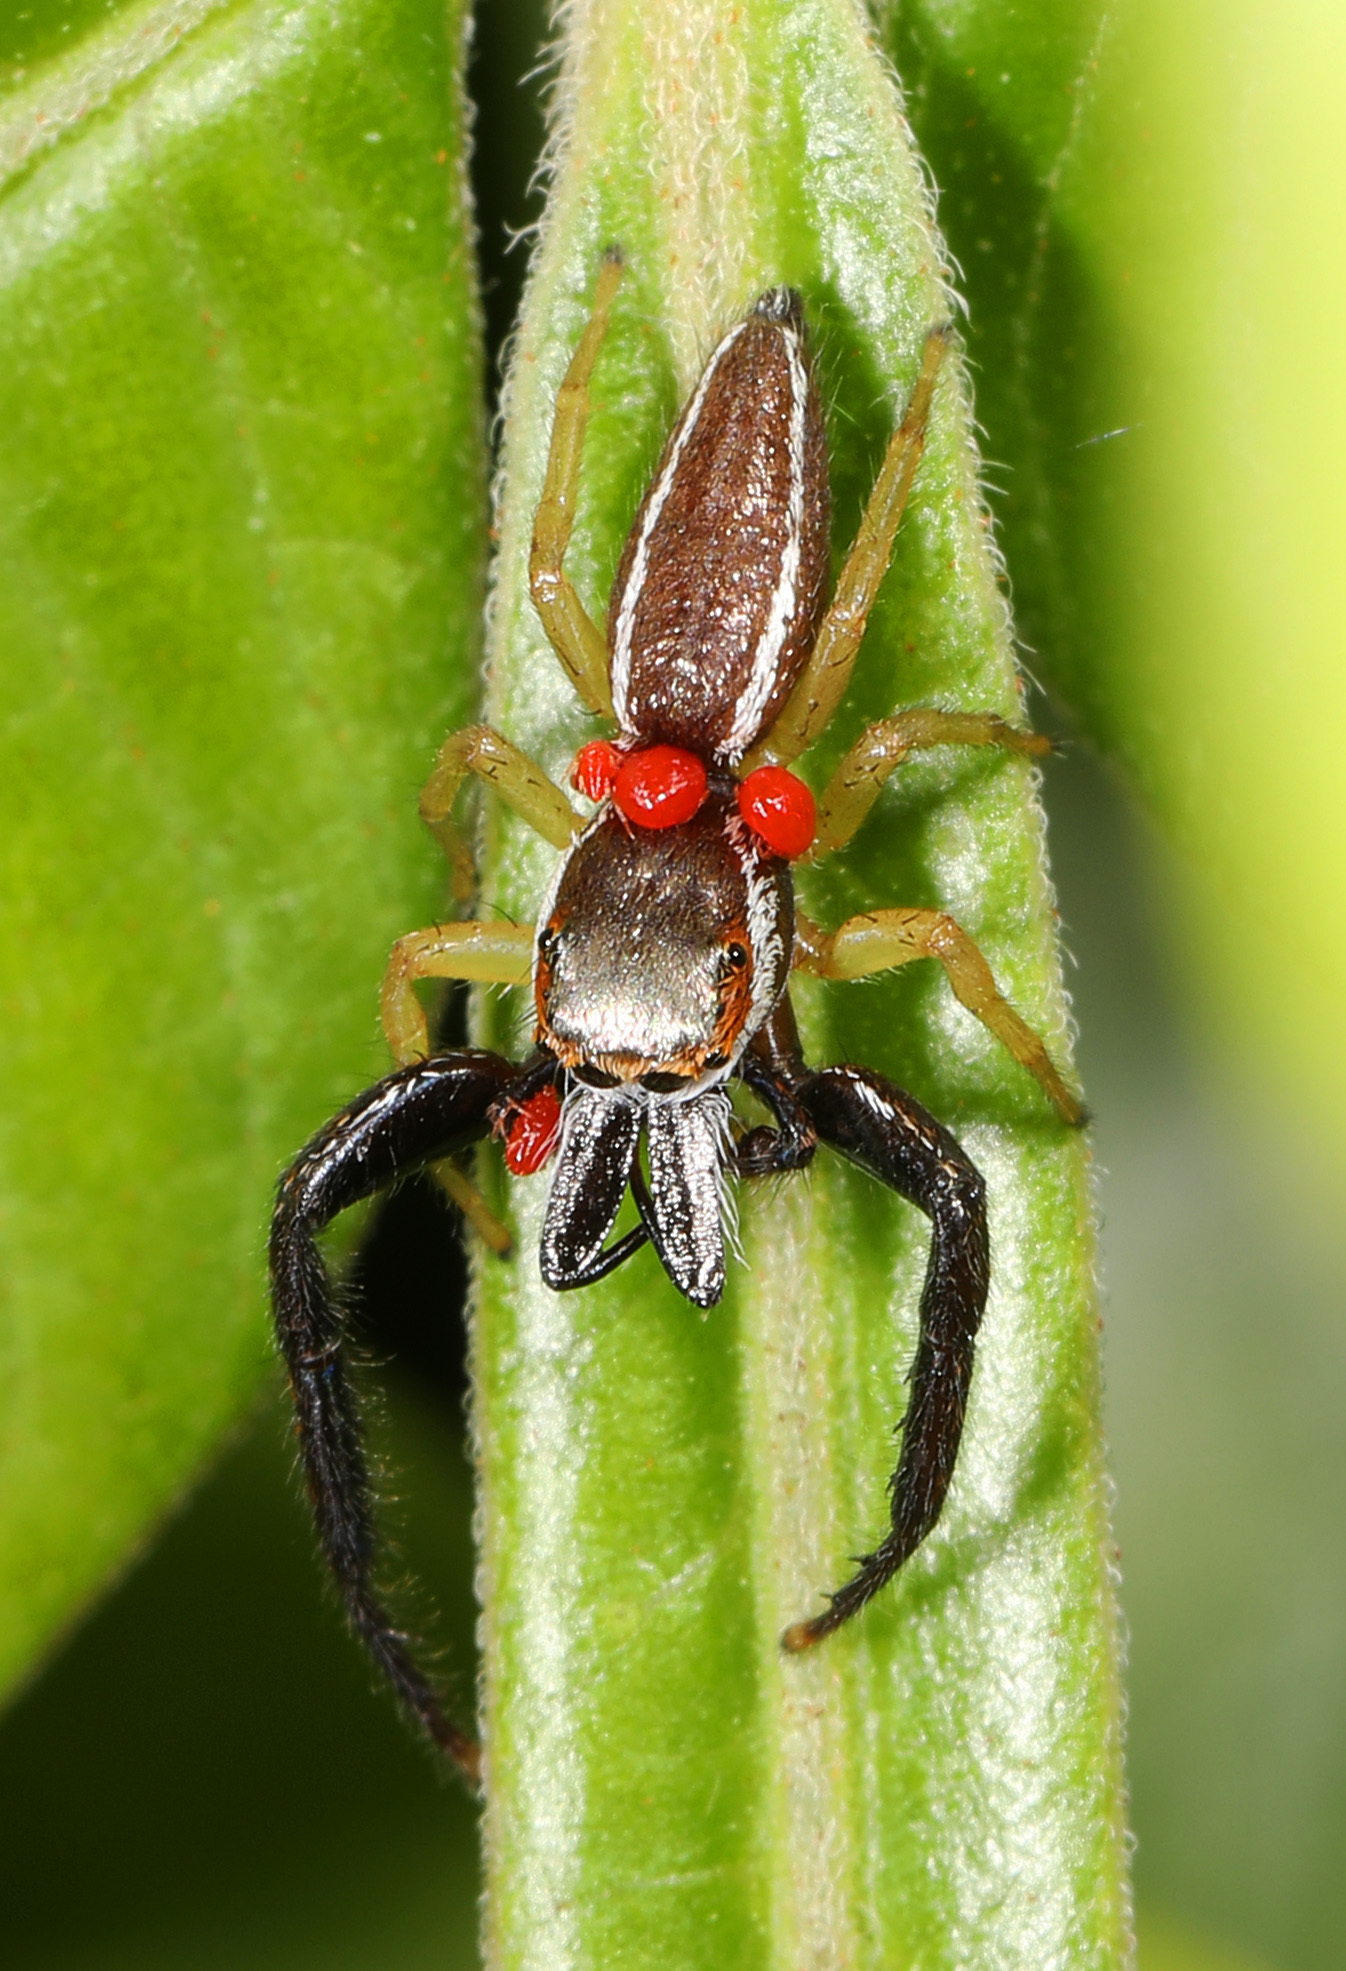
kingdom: Animalia
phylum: Arthropoda
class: Arachnida
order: Araneae
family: Salticidae
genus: Hentzia
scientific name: Hentzia palmarum
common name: Common hentz jumping spider
